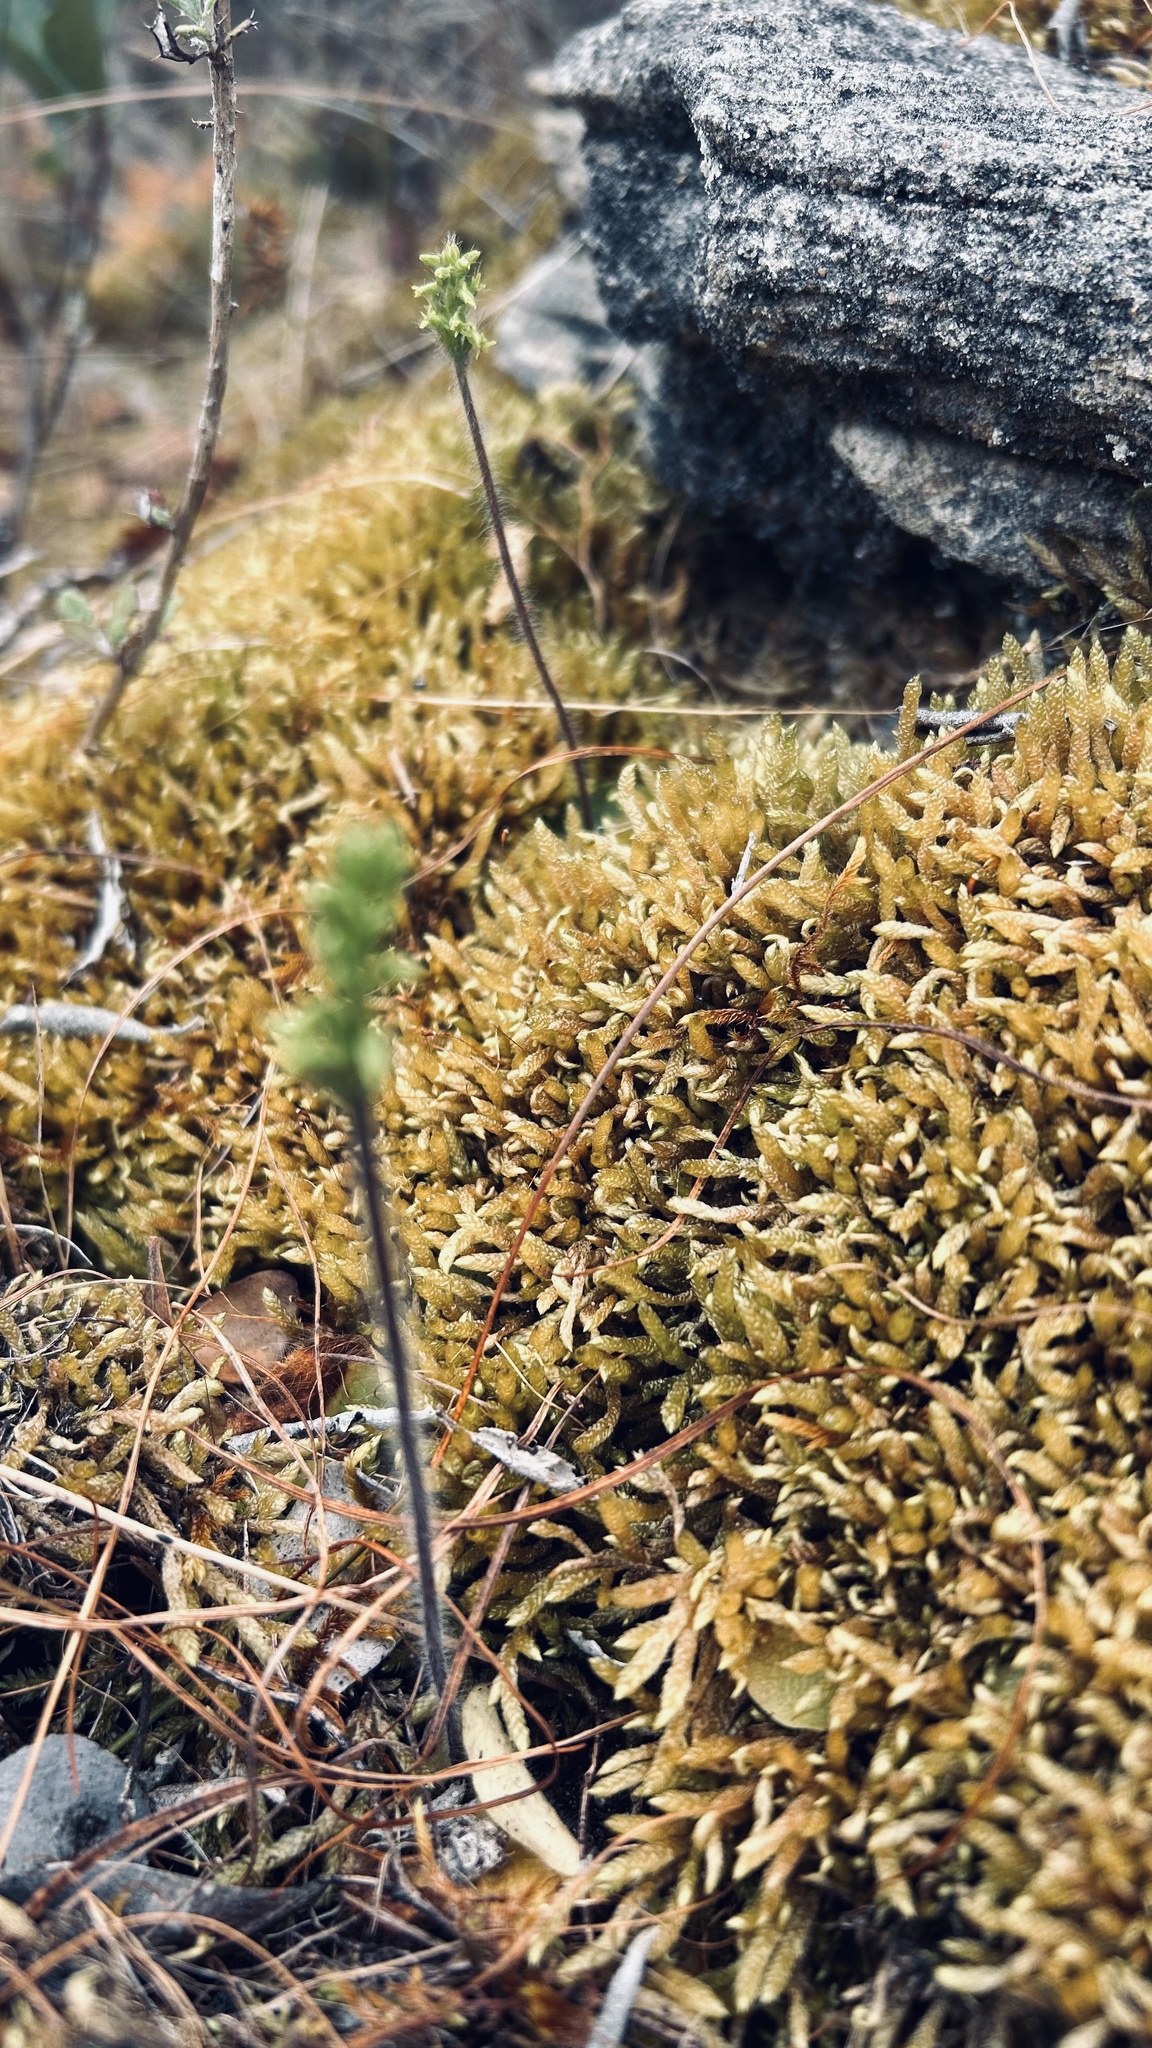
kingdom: Plantae
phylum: Tracheophyta
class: Liliopsida
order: Asparagales
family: Orchidaceae
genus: Holothrix
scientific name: Holothrix villosa
